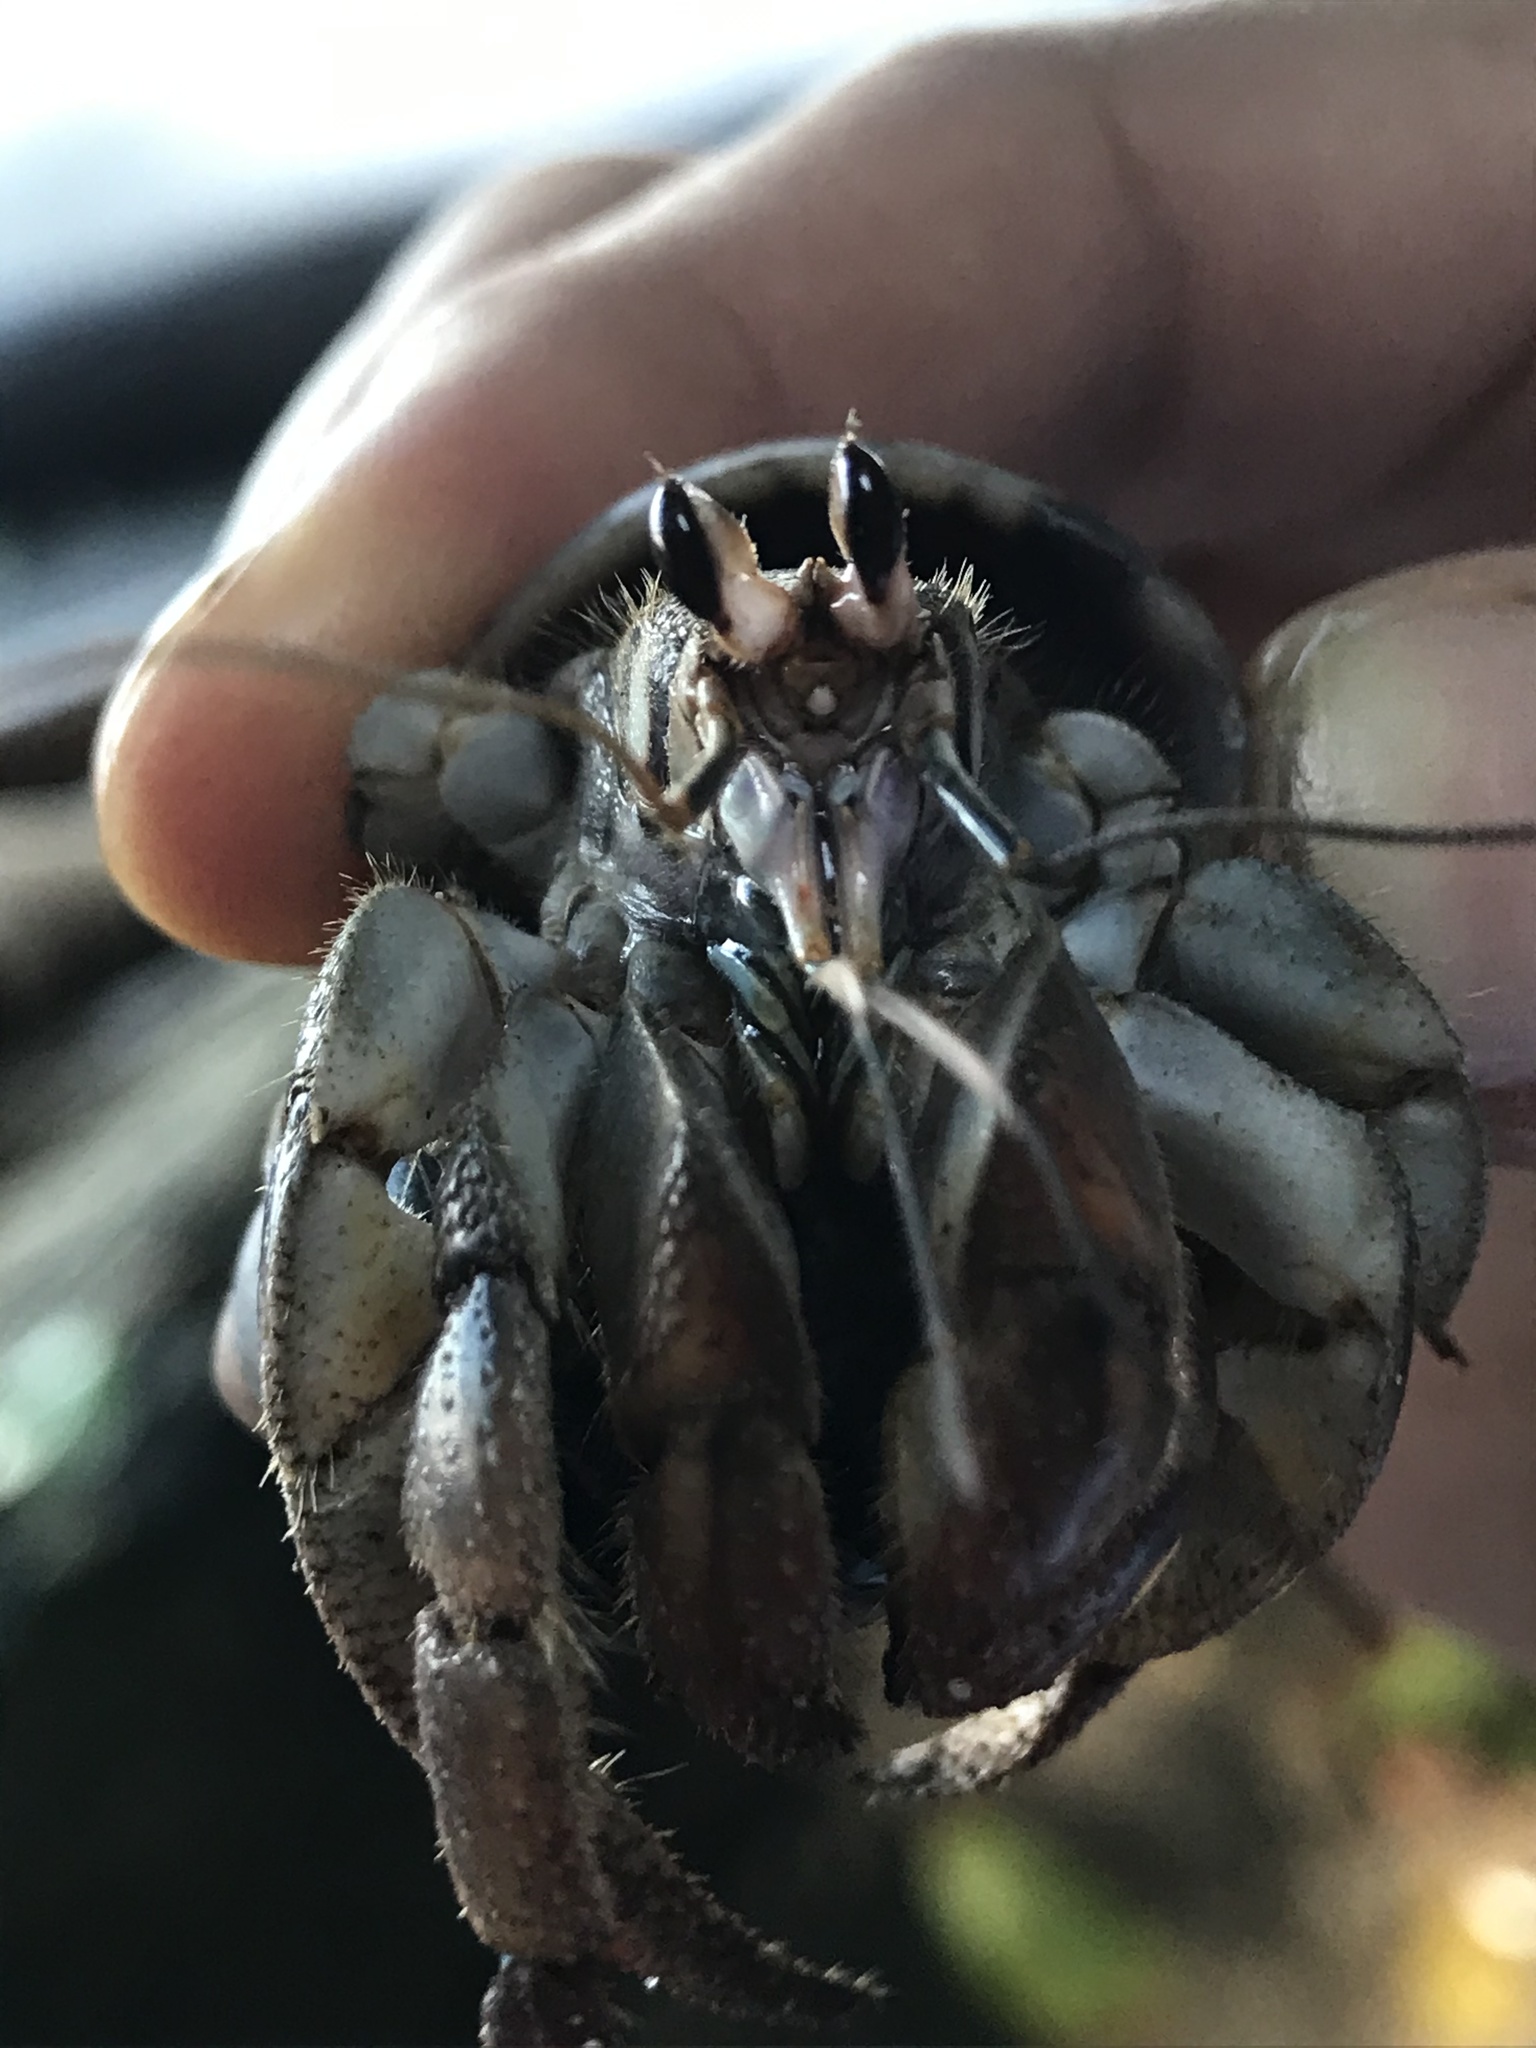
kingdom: Animalia
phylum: Arthropoda
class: Malacostraca
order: Decapoda
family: Coenobitidae
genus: Coenobita
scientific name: Coenobita compressus
